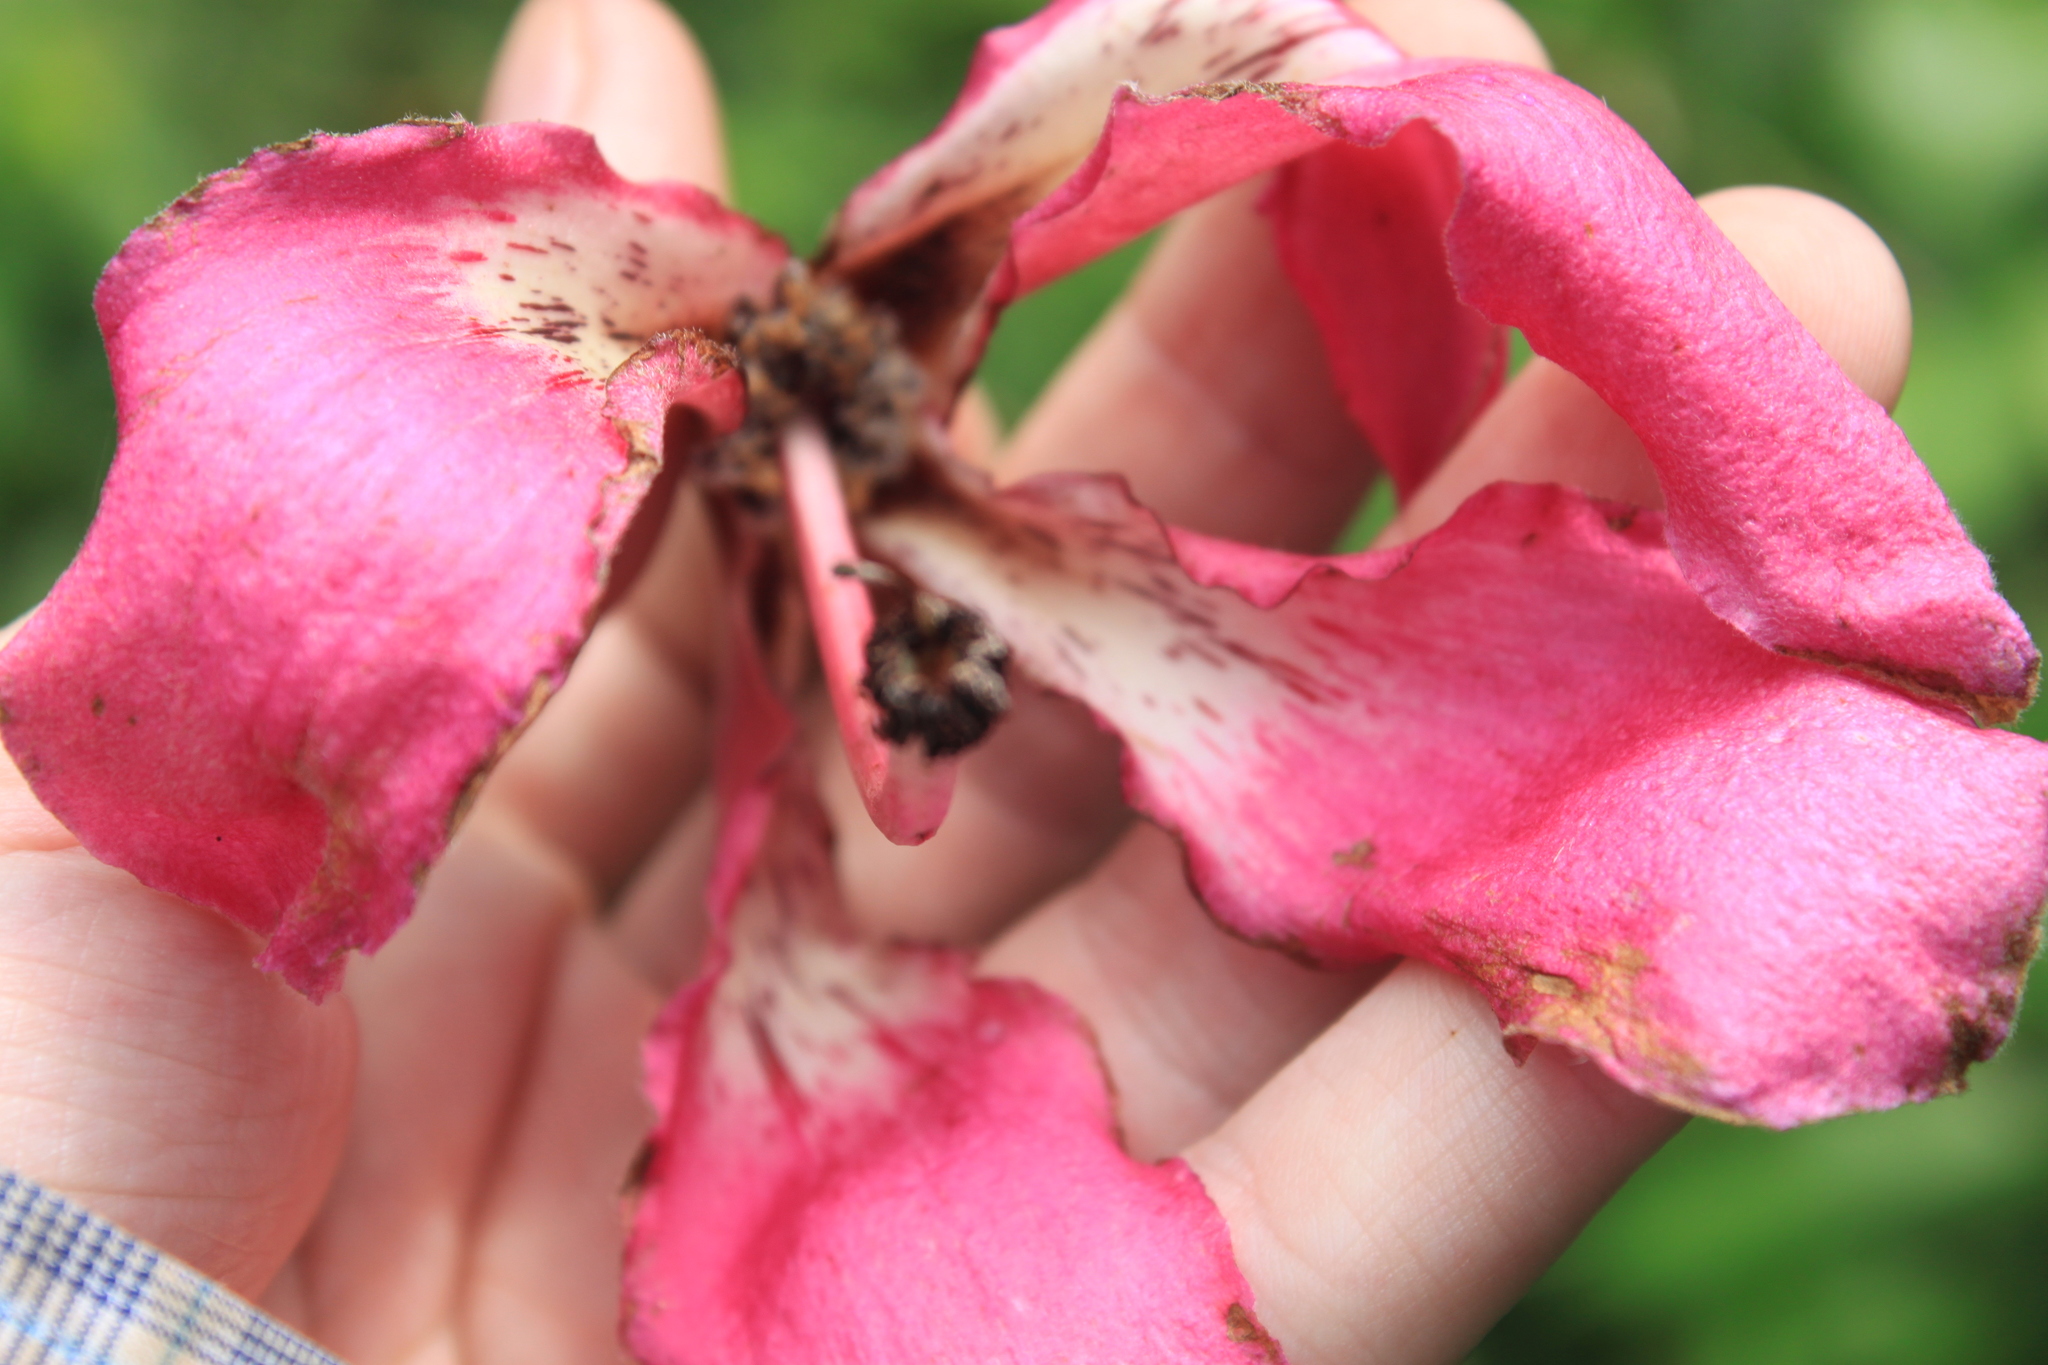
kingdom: Plantae
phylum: Tracheophyta
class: Magnoliopsida
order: Malvales
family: Malvaceae
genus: Ceiba
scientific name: Ceiba speciosa
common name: Silk-floss tree
